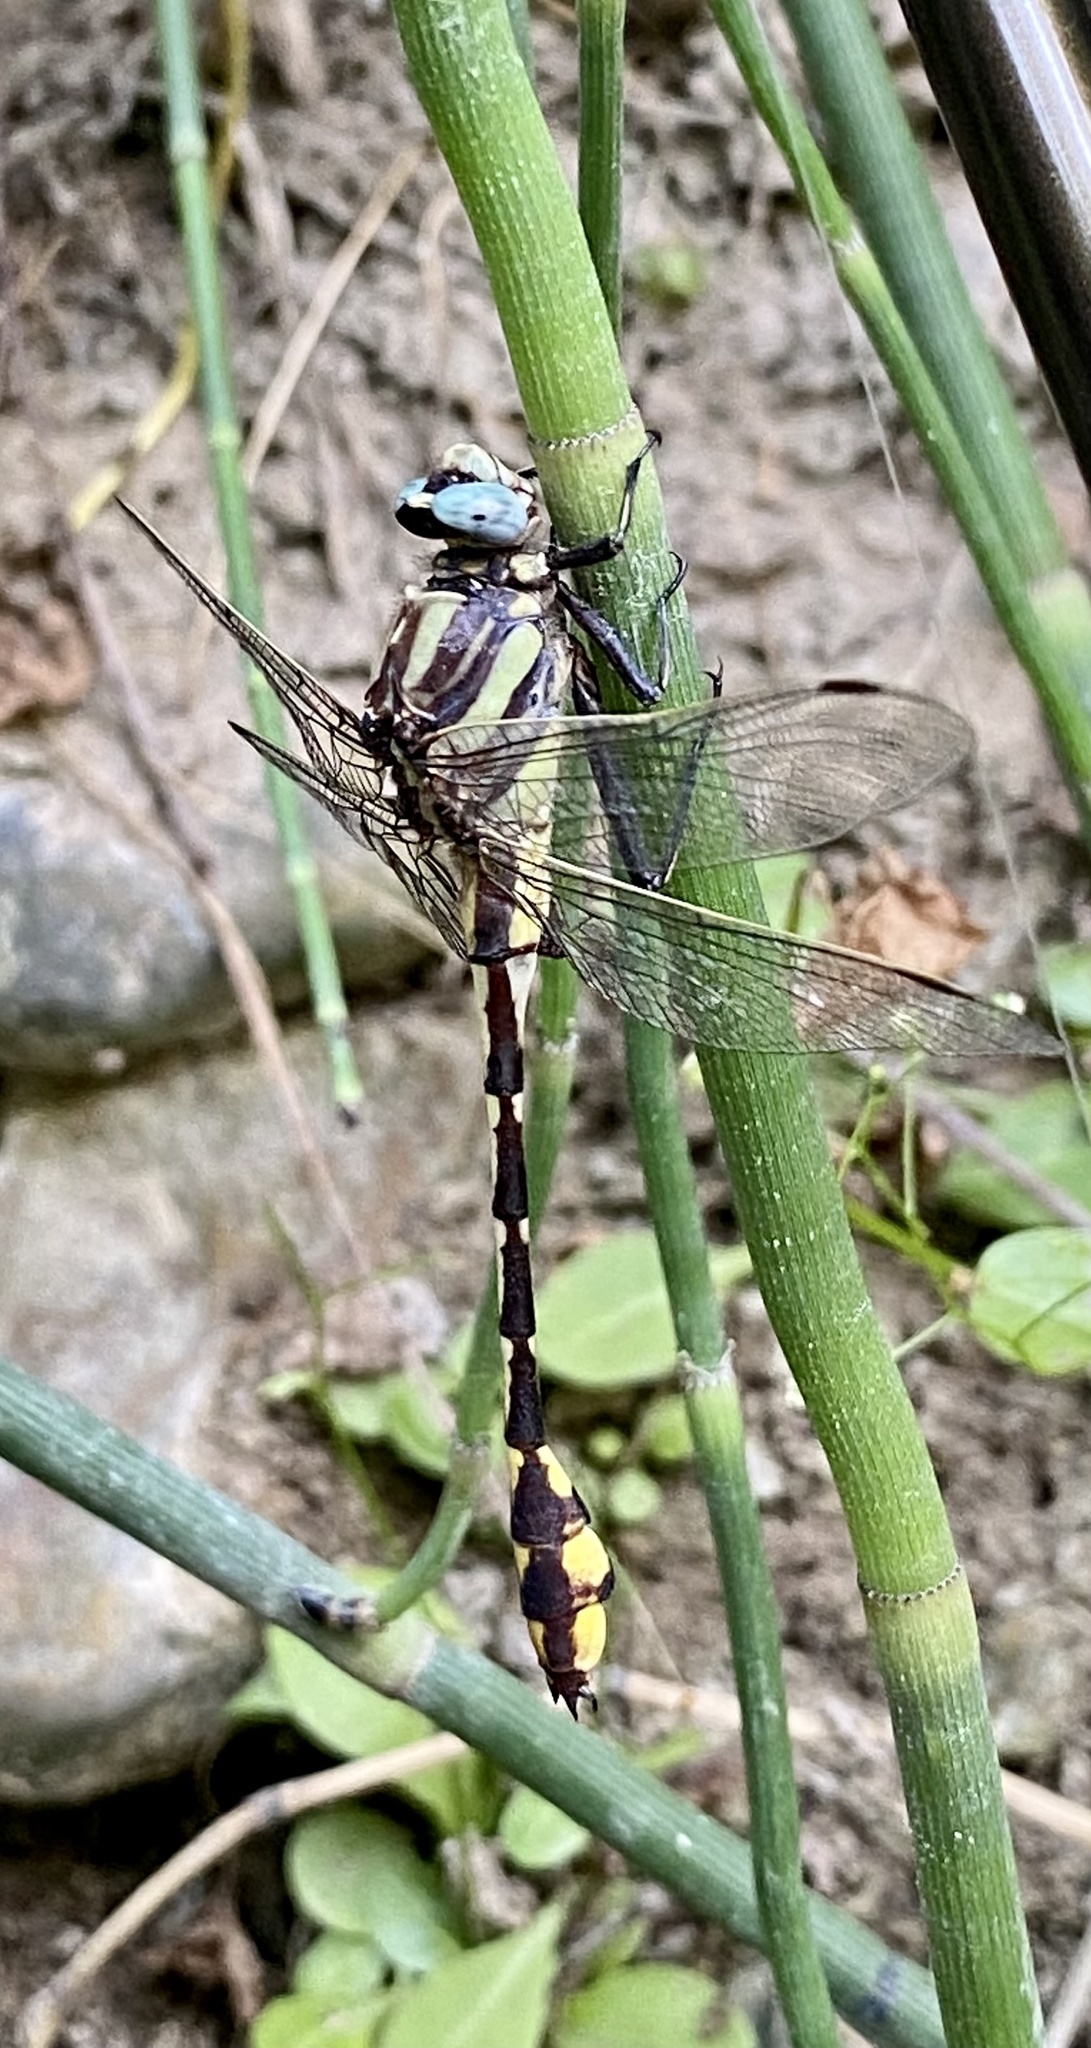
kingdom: Animalia
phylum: Arthropoda
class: Insecta
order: Odonata
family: Gomphidae
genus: Gomphurus
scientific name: Gomphurus externus
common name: Plains clubtail
